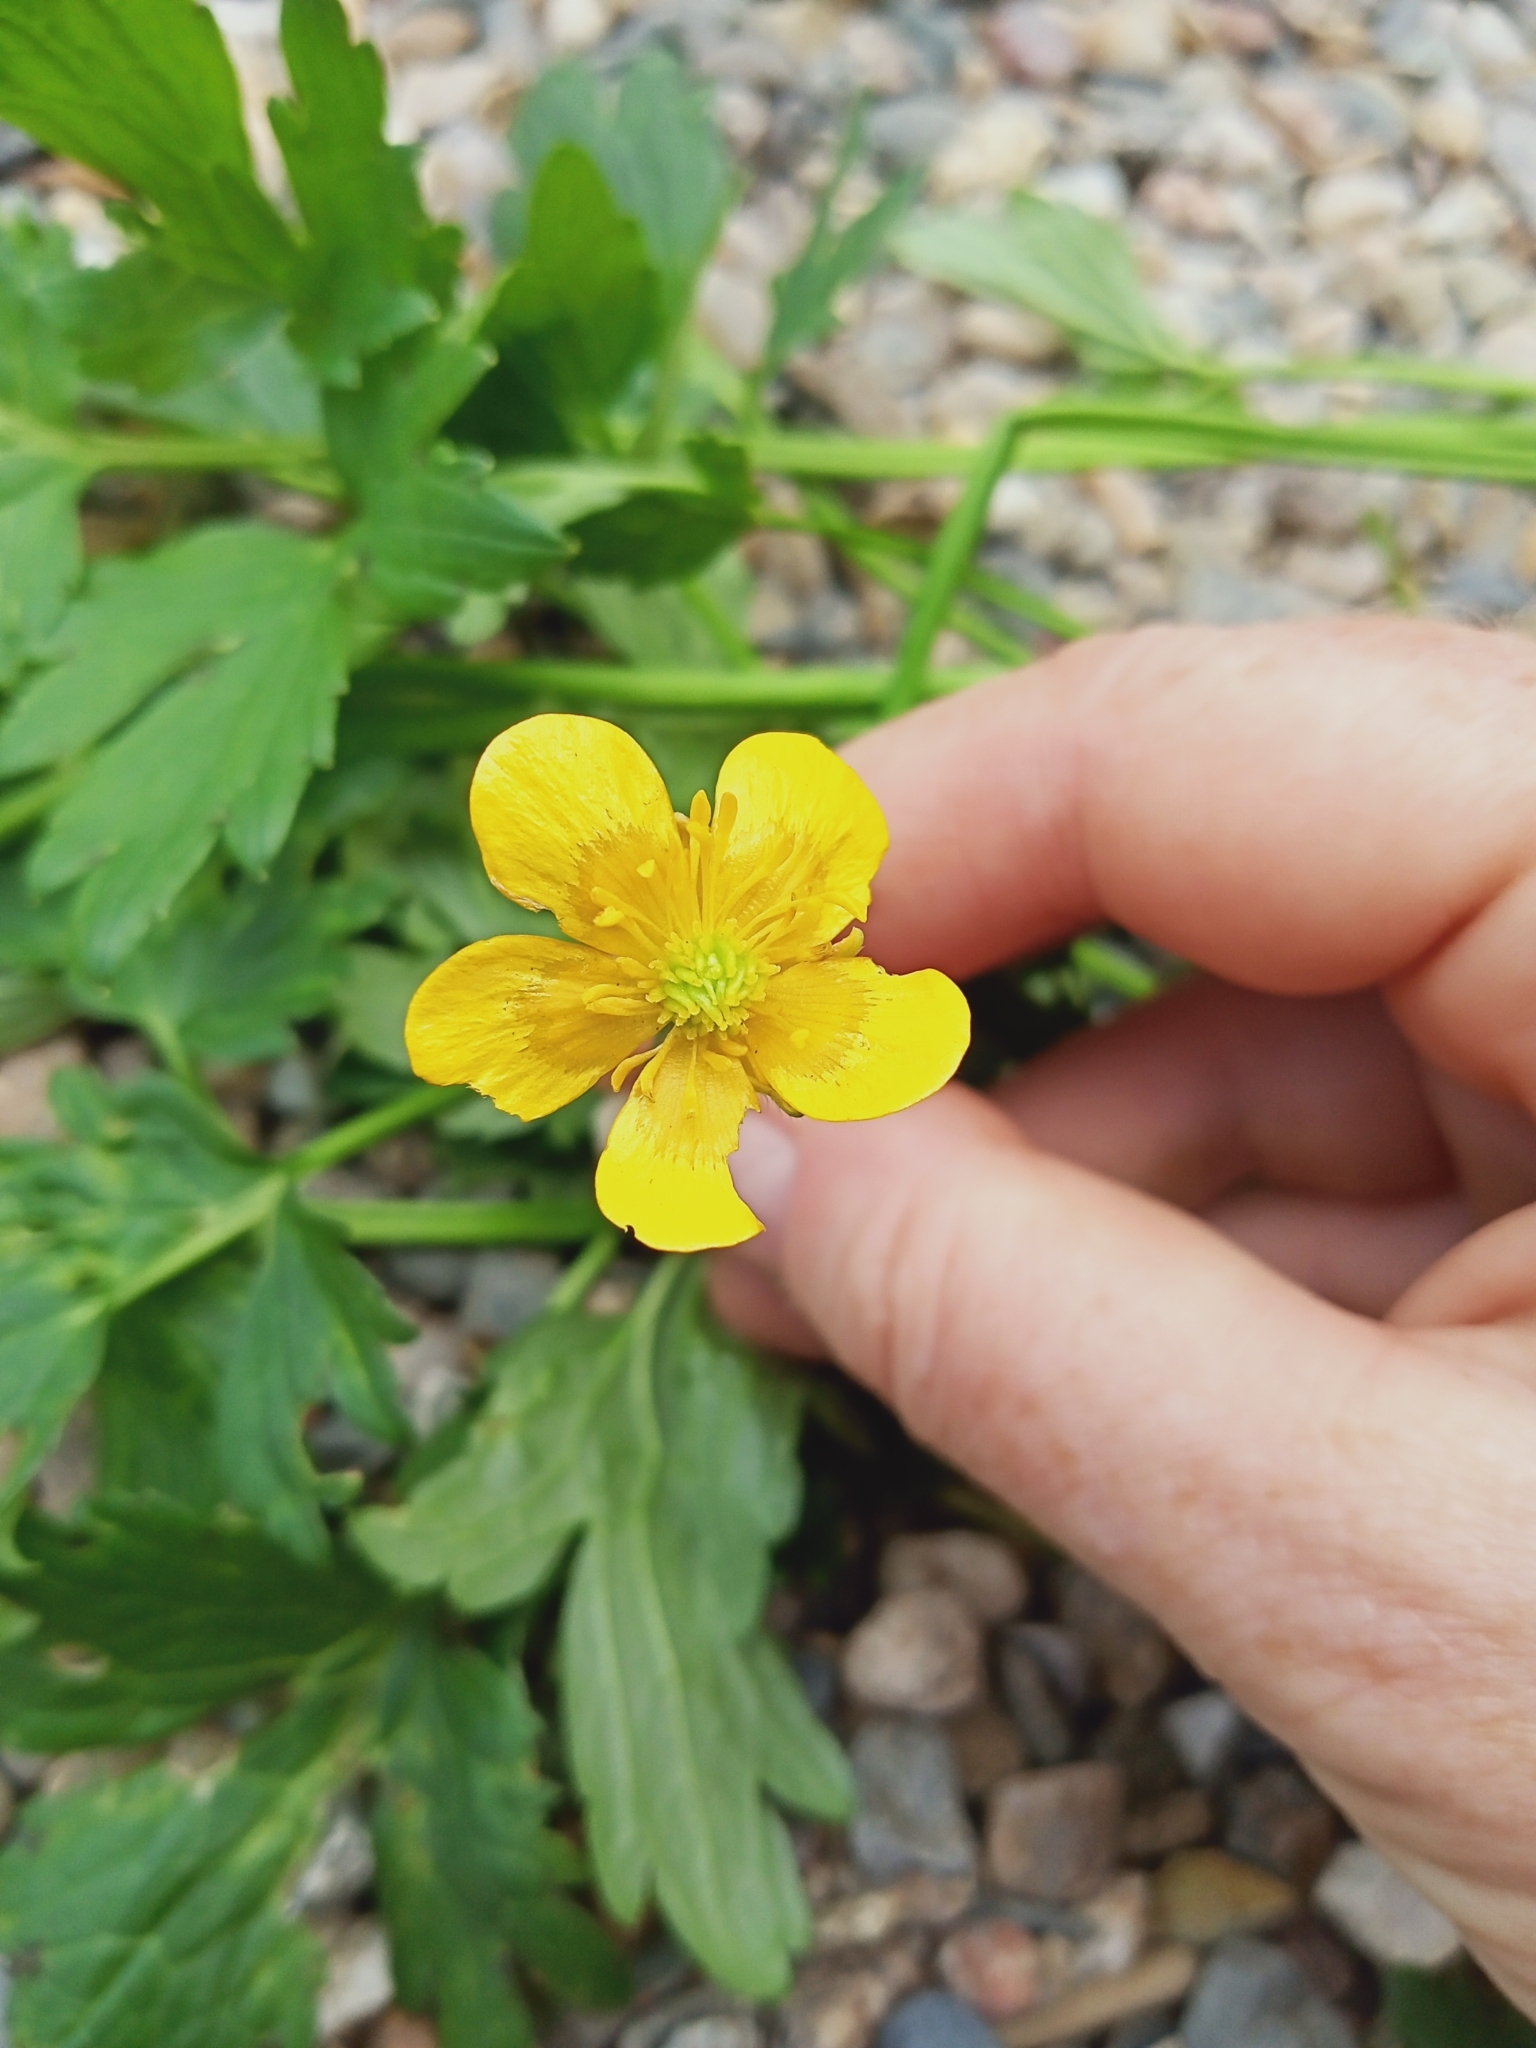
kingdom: Plantae
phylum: Tracheophyta
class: Magnoliopsida
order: Ranunculales
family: Ranunculaceae
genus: Ranunculus
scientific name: Ranunculus repens
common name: Creeping buttercup
